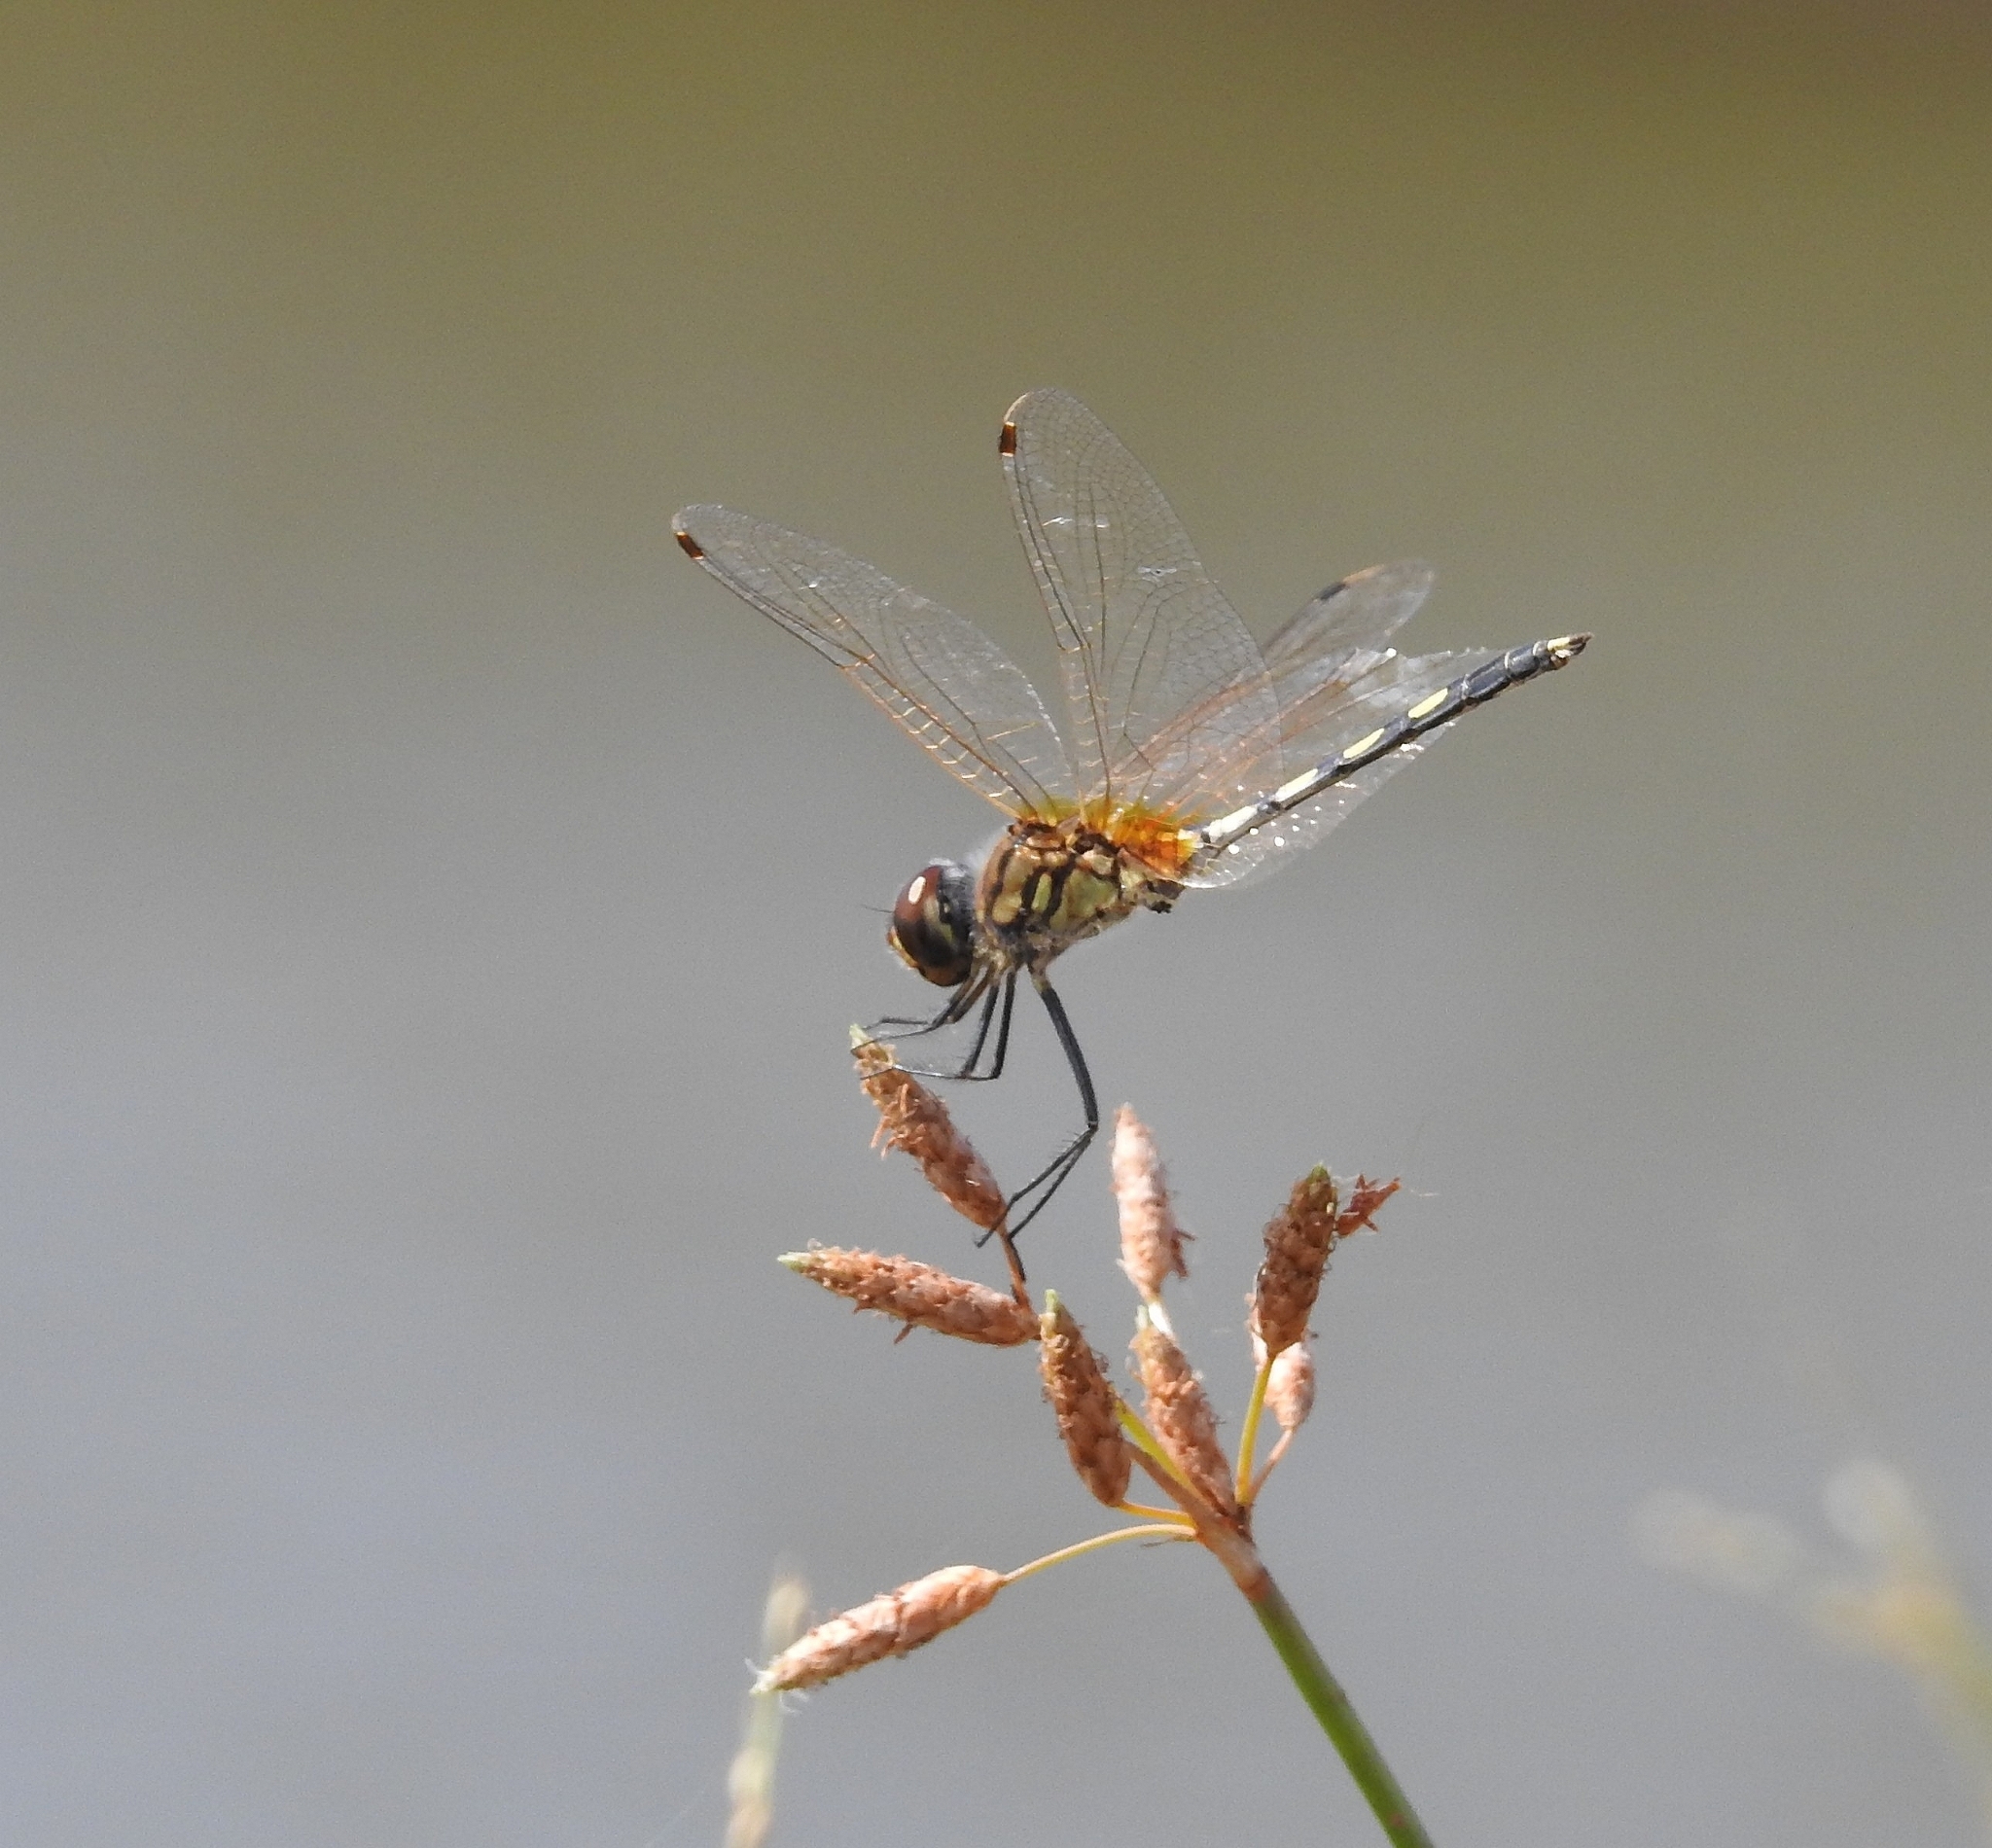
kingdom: Animalia
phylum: Arthropoda
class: Insecta
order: Odonata
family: Libellulidae
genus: Trithemis
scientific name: Trithemis pallidinervis
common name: Dancing dropwing
